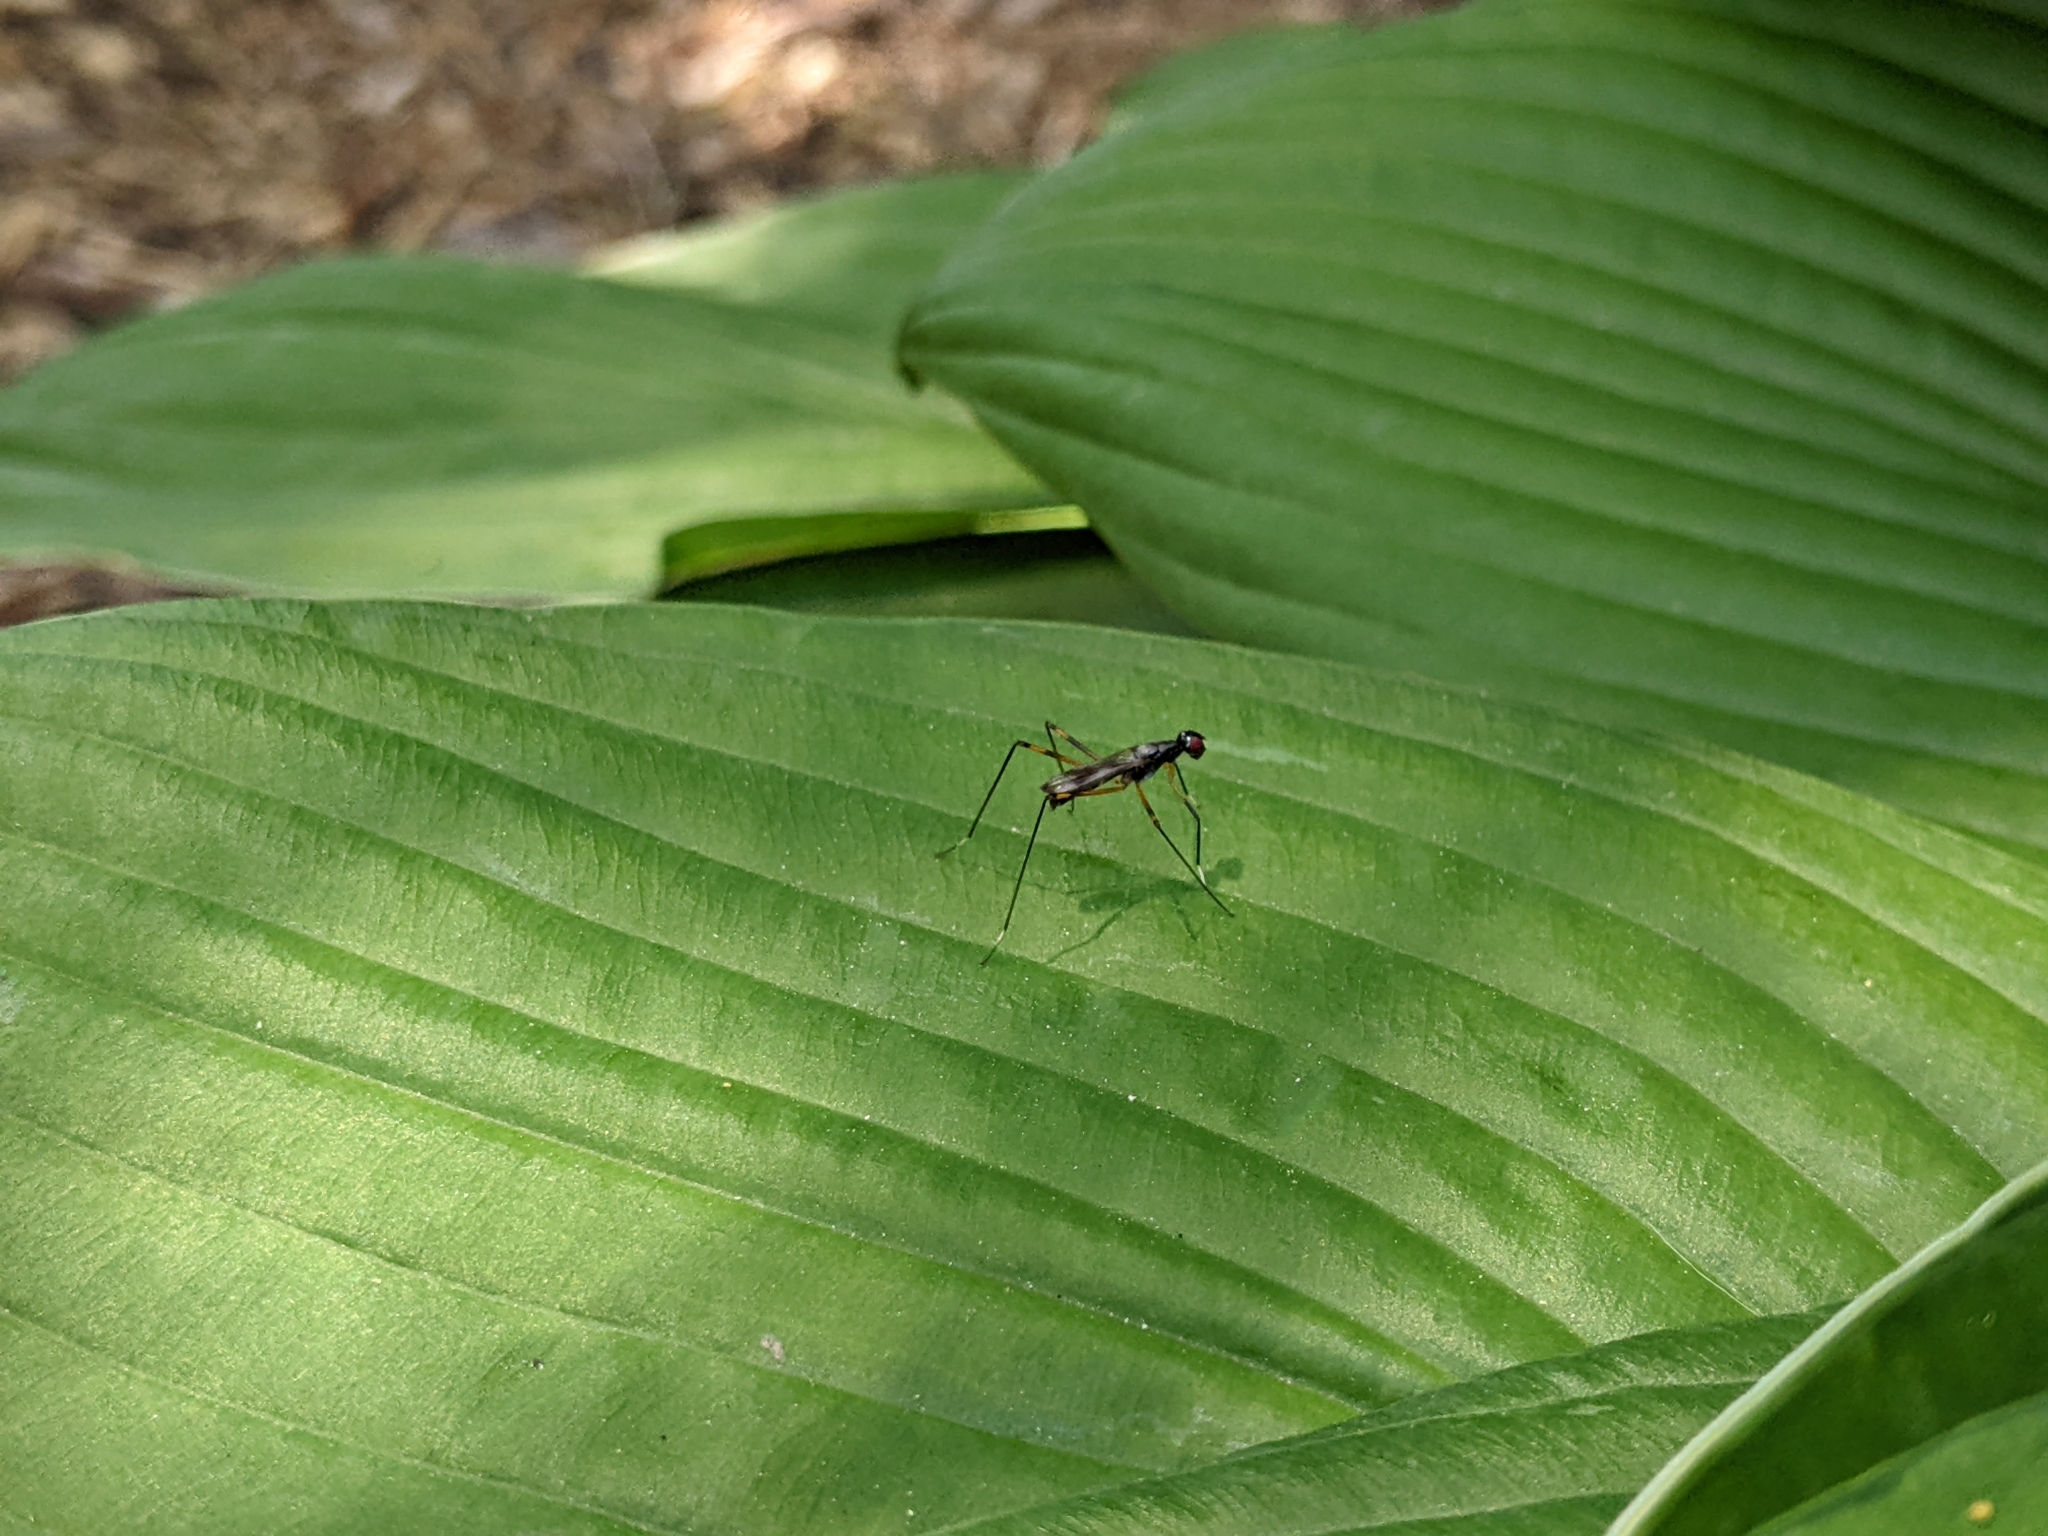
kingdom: Animalia
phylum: Arthropoda
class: Insecta
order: Diptera
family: Micropezidae
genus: Rainieria
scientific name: Rainieria antennaepes
